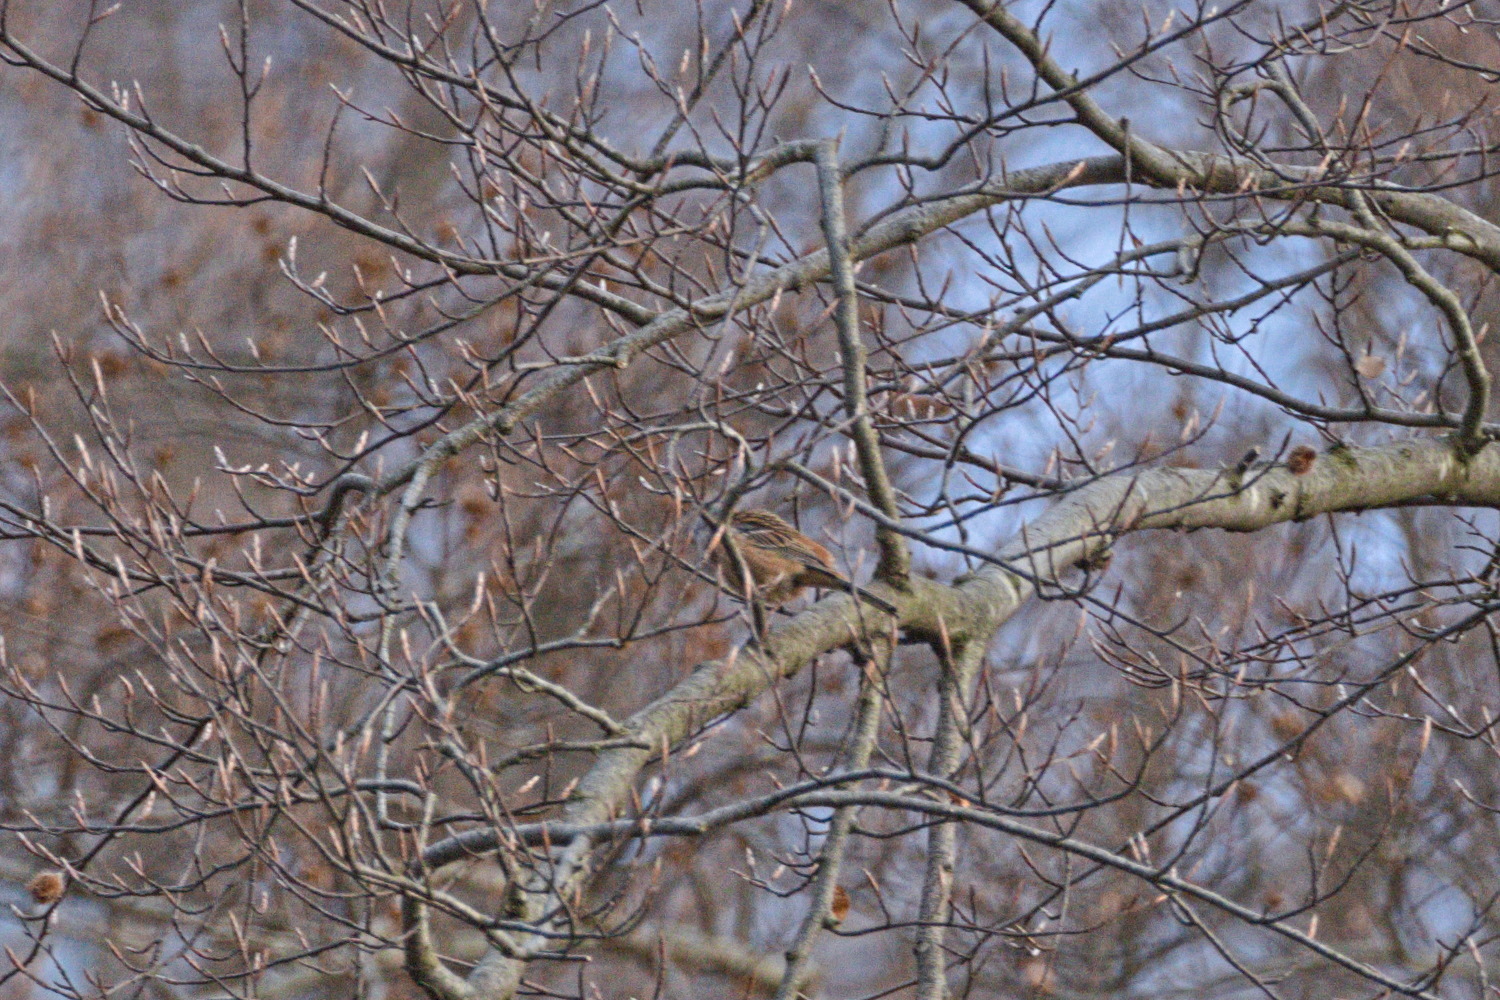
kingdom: Animalia
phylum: Chordata
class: Aves
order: Passeriformes
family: Emberizidae
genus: Emberiza
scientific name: Emberiza cia
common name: Rock bunting
